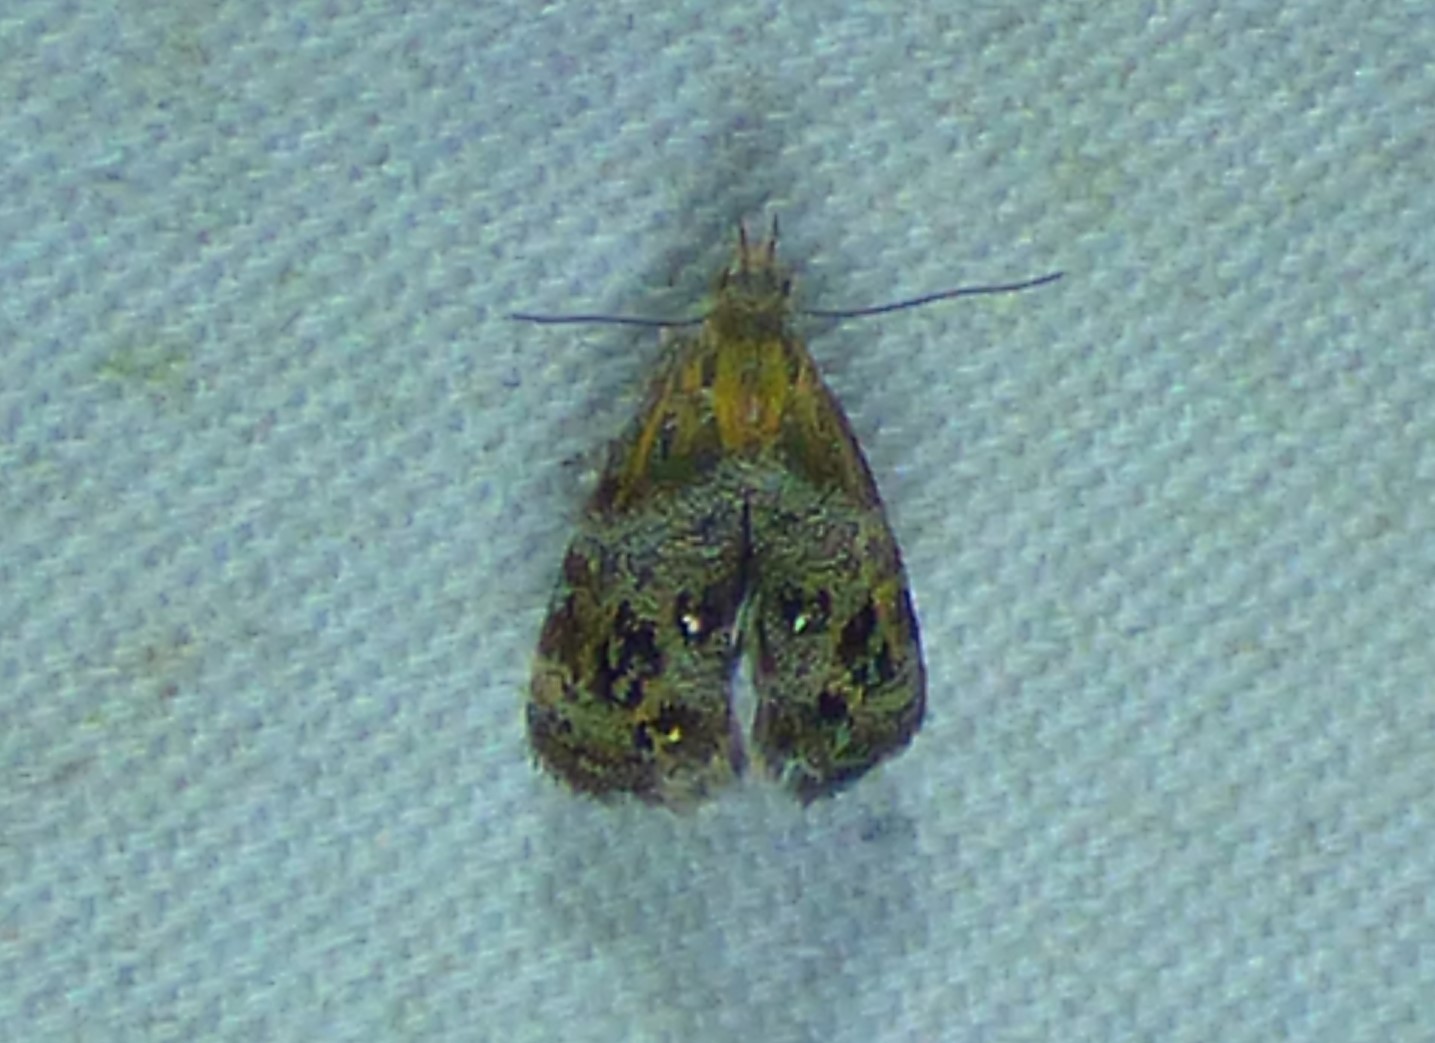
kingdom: Animalia
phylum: Arthropoda
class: Insecta
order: Lepidoptera
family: Choreutidae
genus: Tebenna
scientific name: Tebenna gnaphaliella
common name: Everlasting tebenna moth
